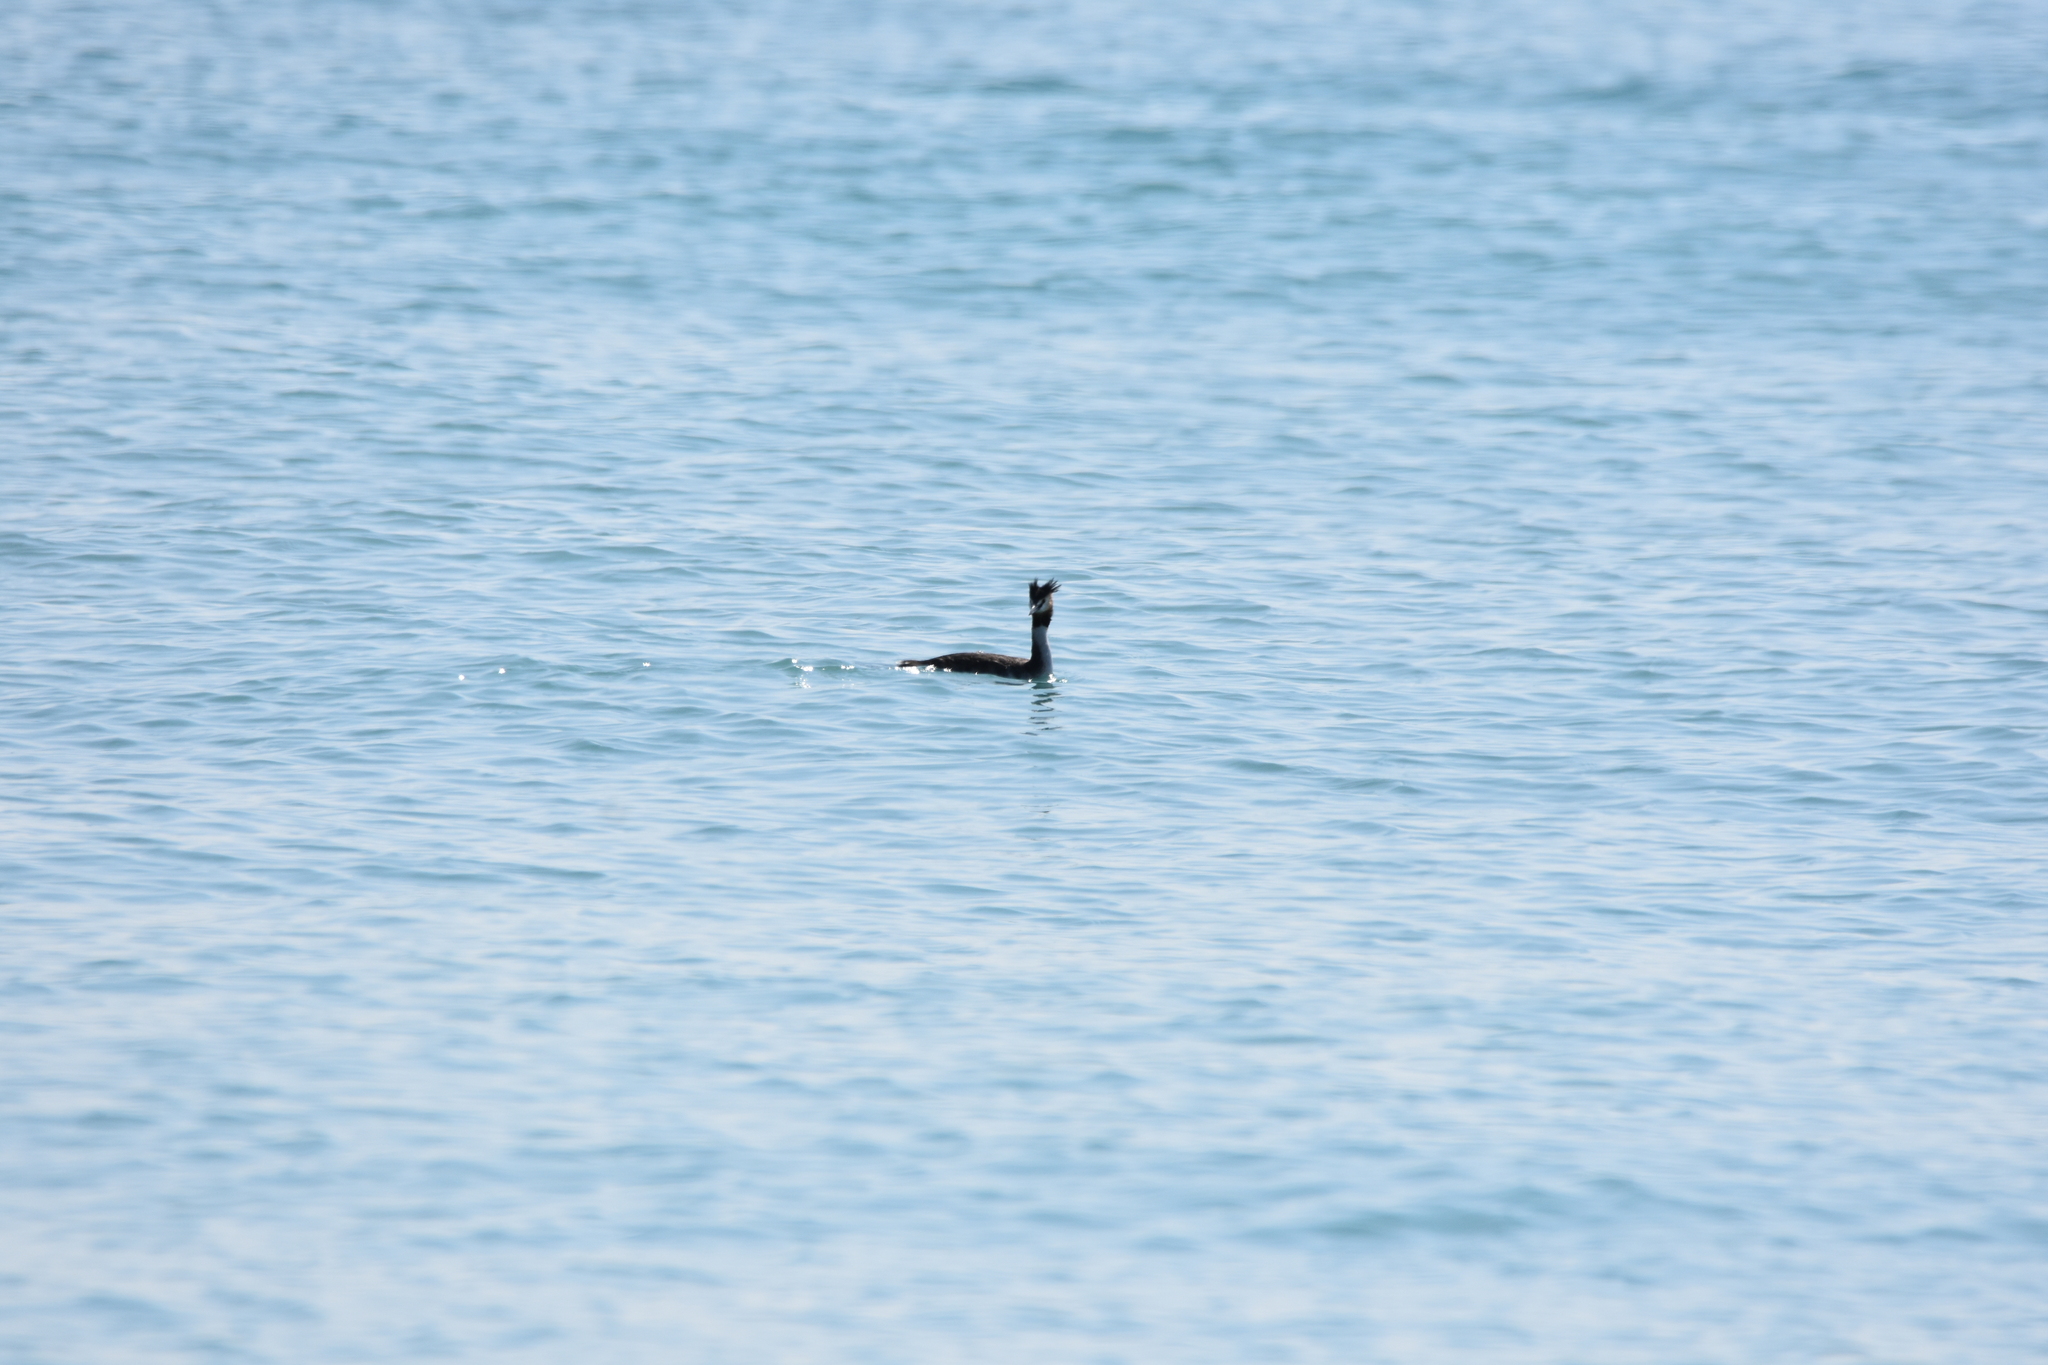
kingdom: Animalia
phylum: Chordata
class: Aves
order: Podicipediformes
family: Podicipedidae
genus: Podiceps
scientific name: Podiceps cristatus
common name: Great crested grebe
